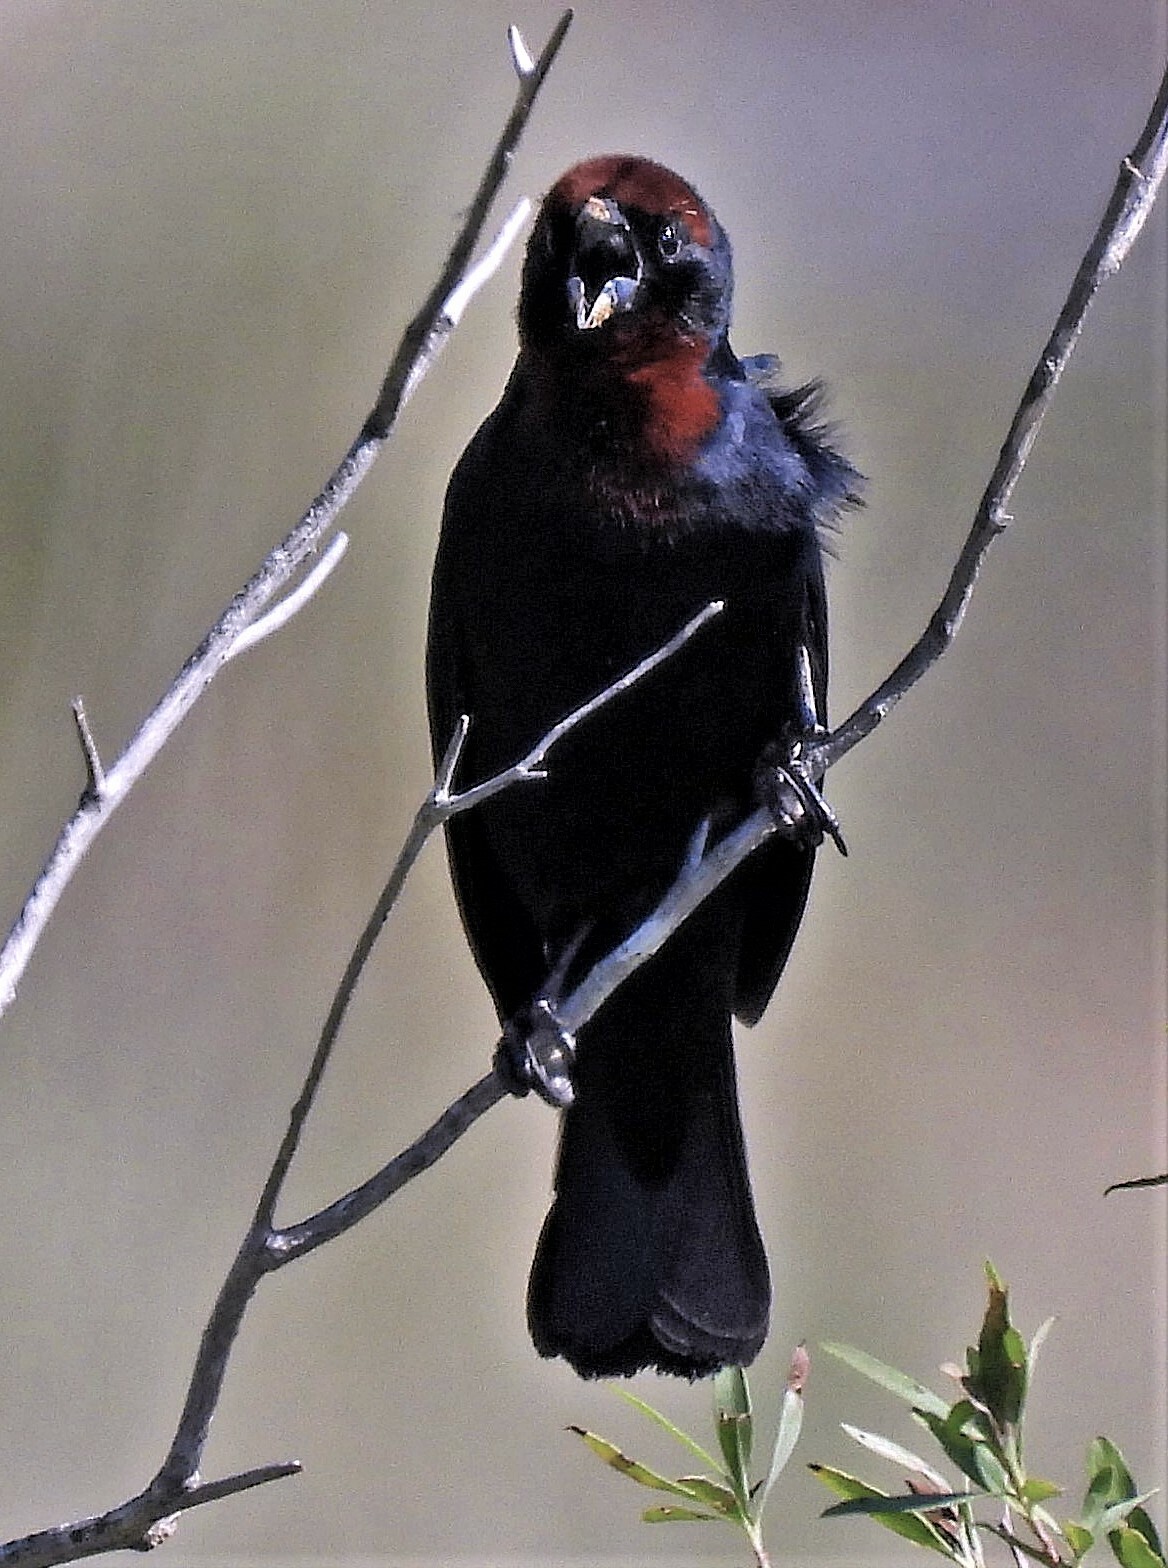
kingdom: Animalia
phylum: Chordata
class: Aves
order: Passeriformes
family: Icteridae
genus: Chrysomus
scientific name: Chrysomus ruficapillus
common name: Chestnut-capped blackbird
